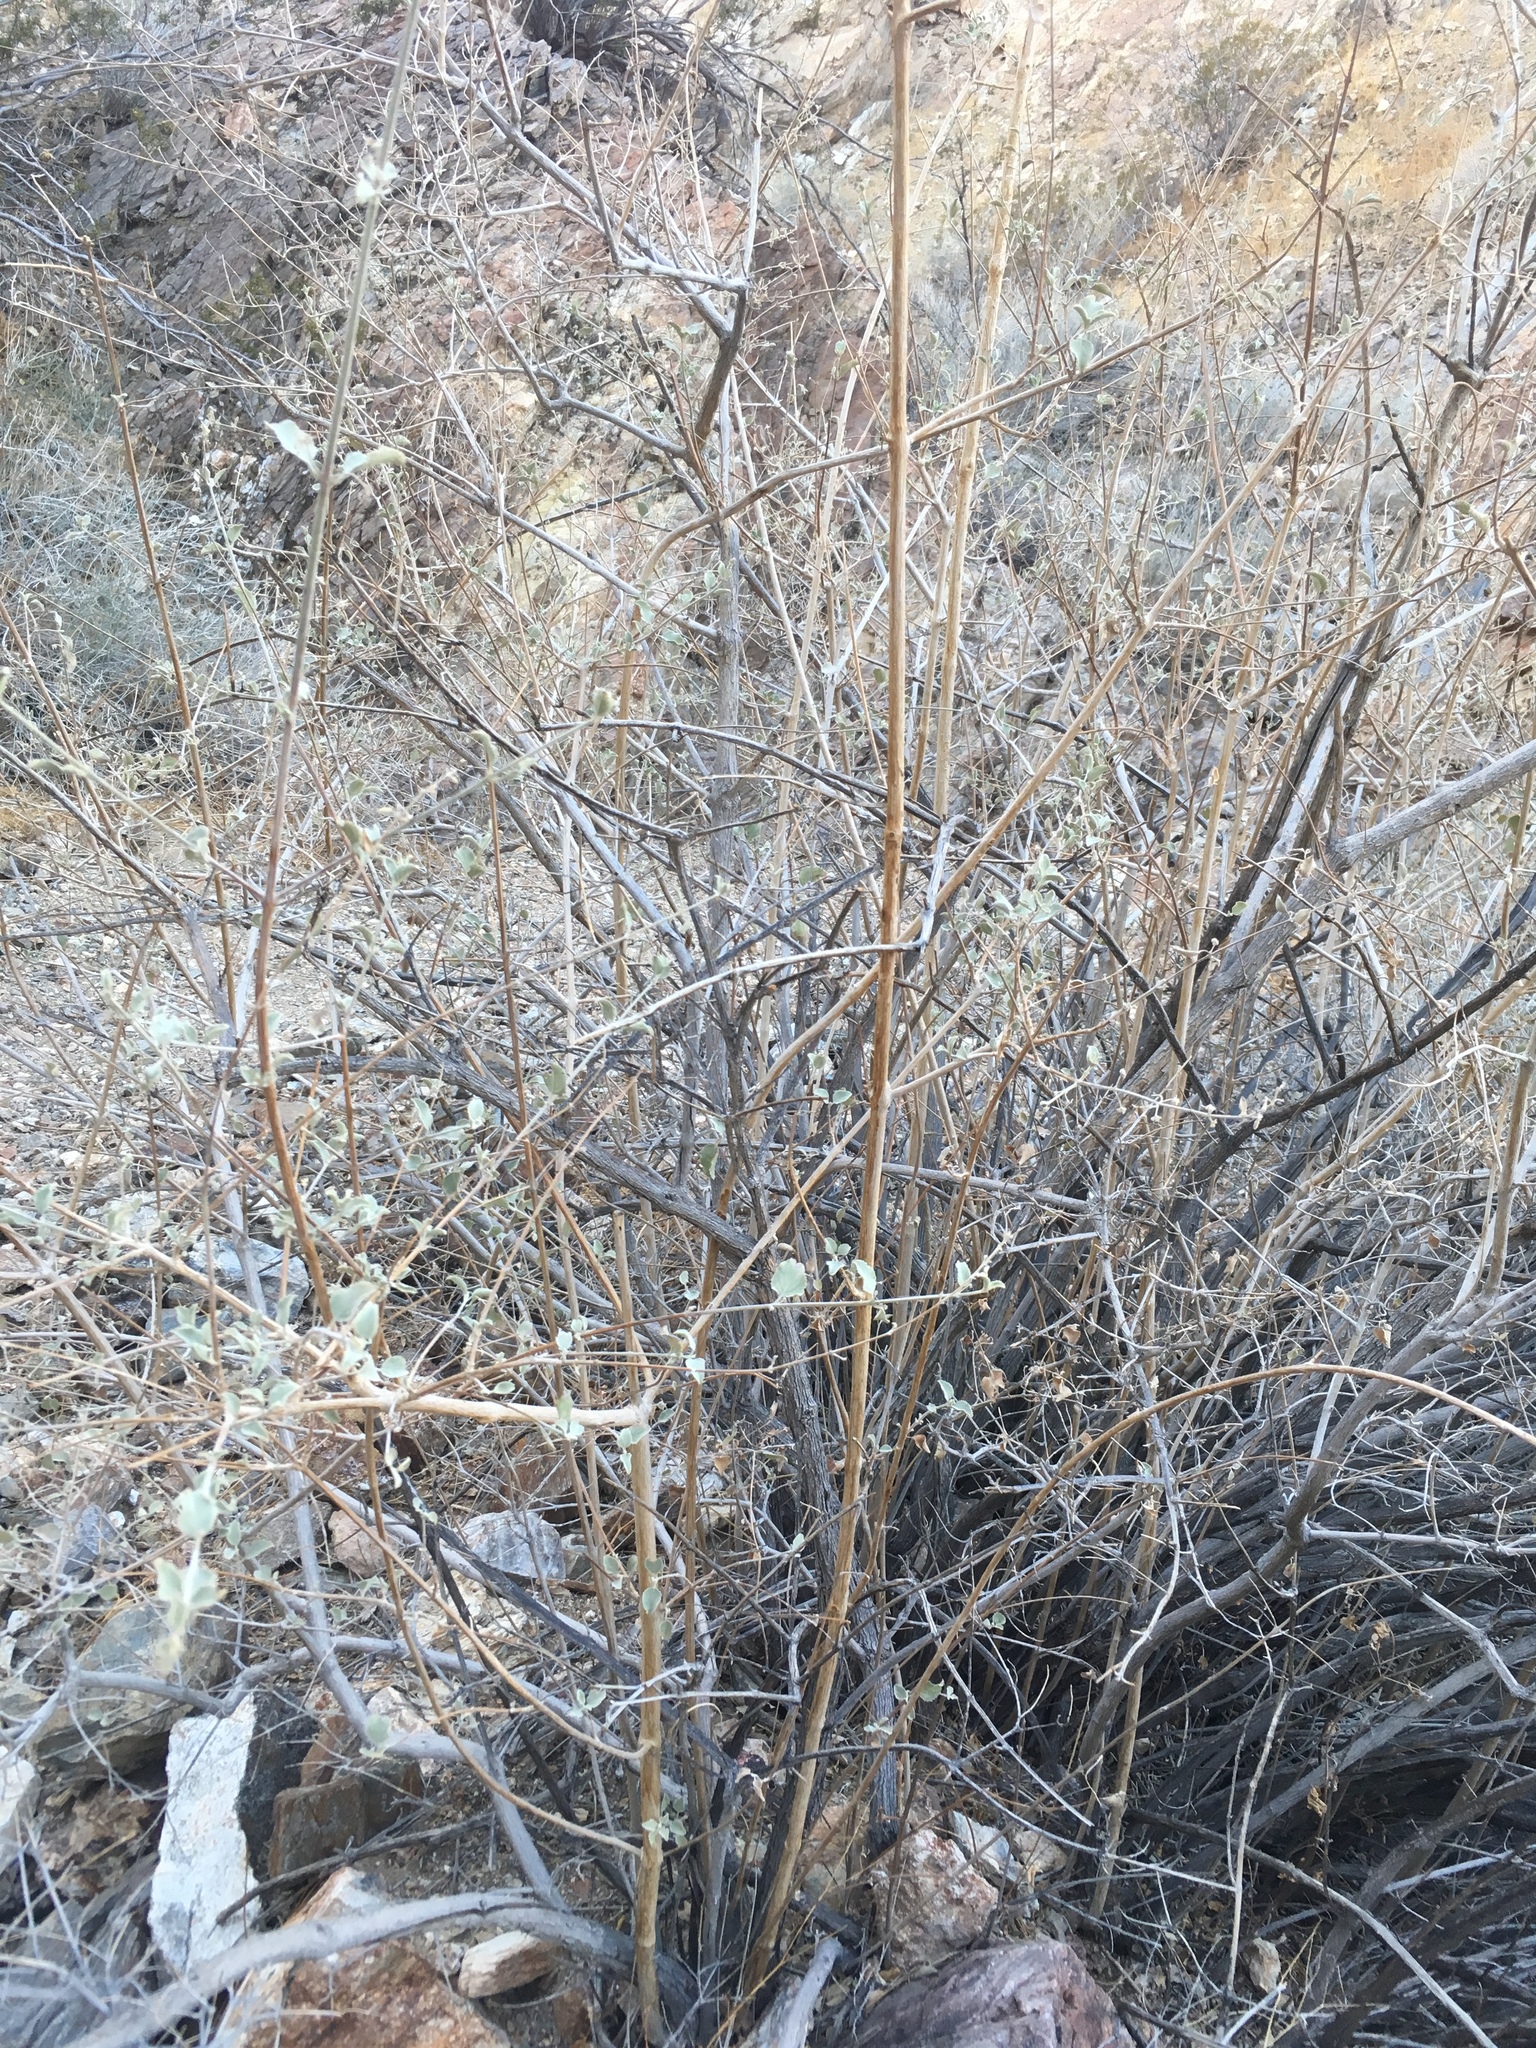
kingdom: Plantae
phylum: Tracheophyta
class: Magnoliopsida
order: Lamiales
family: Lamiaceae
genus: Condea
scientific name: Condea emoryi
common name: Chia
